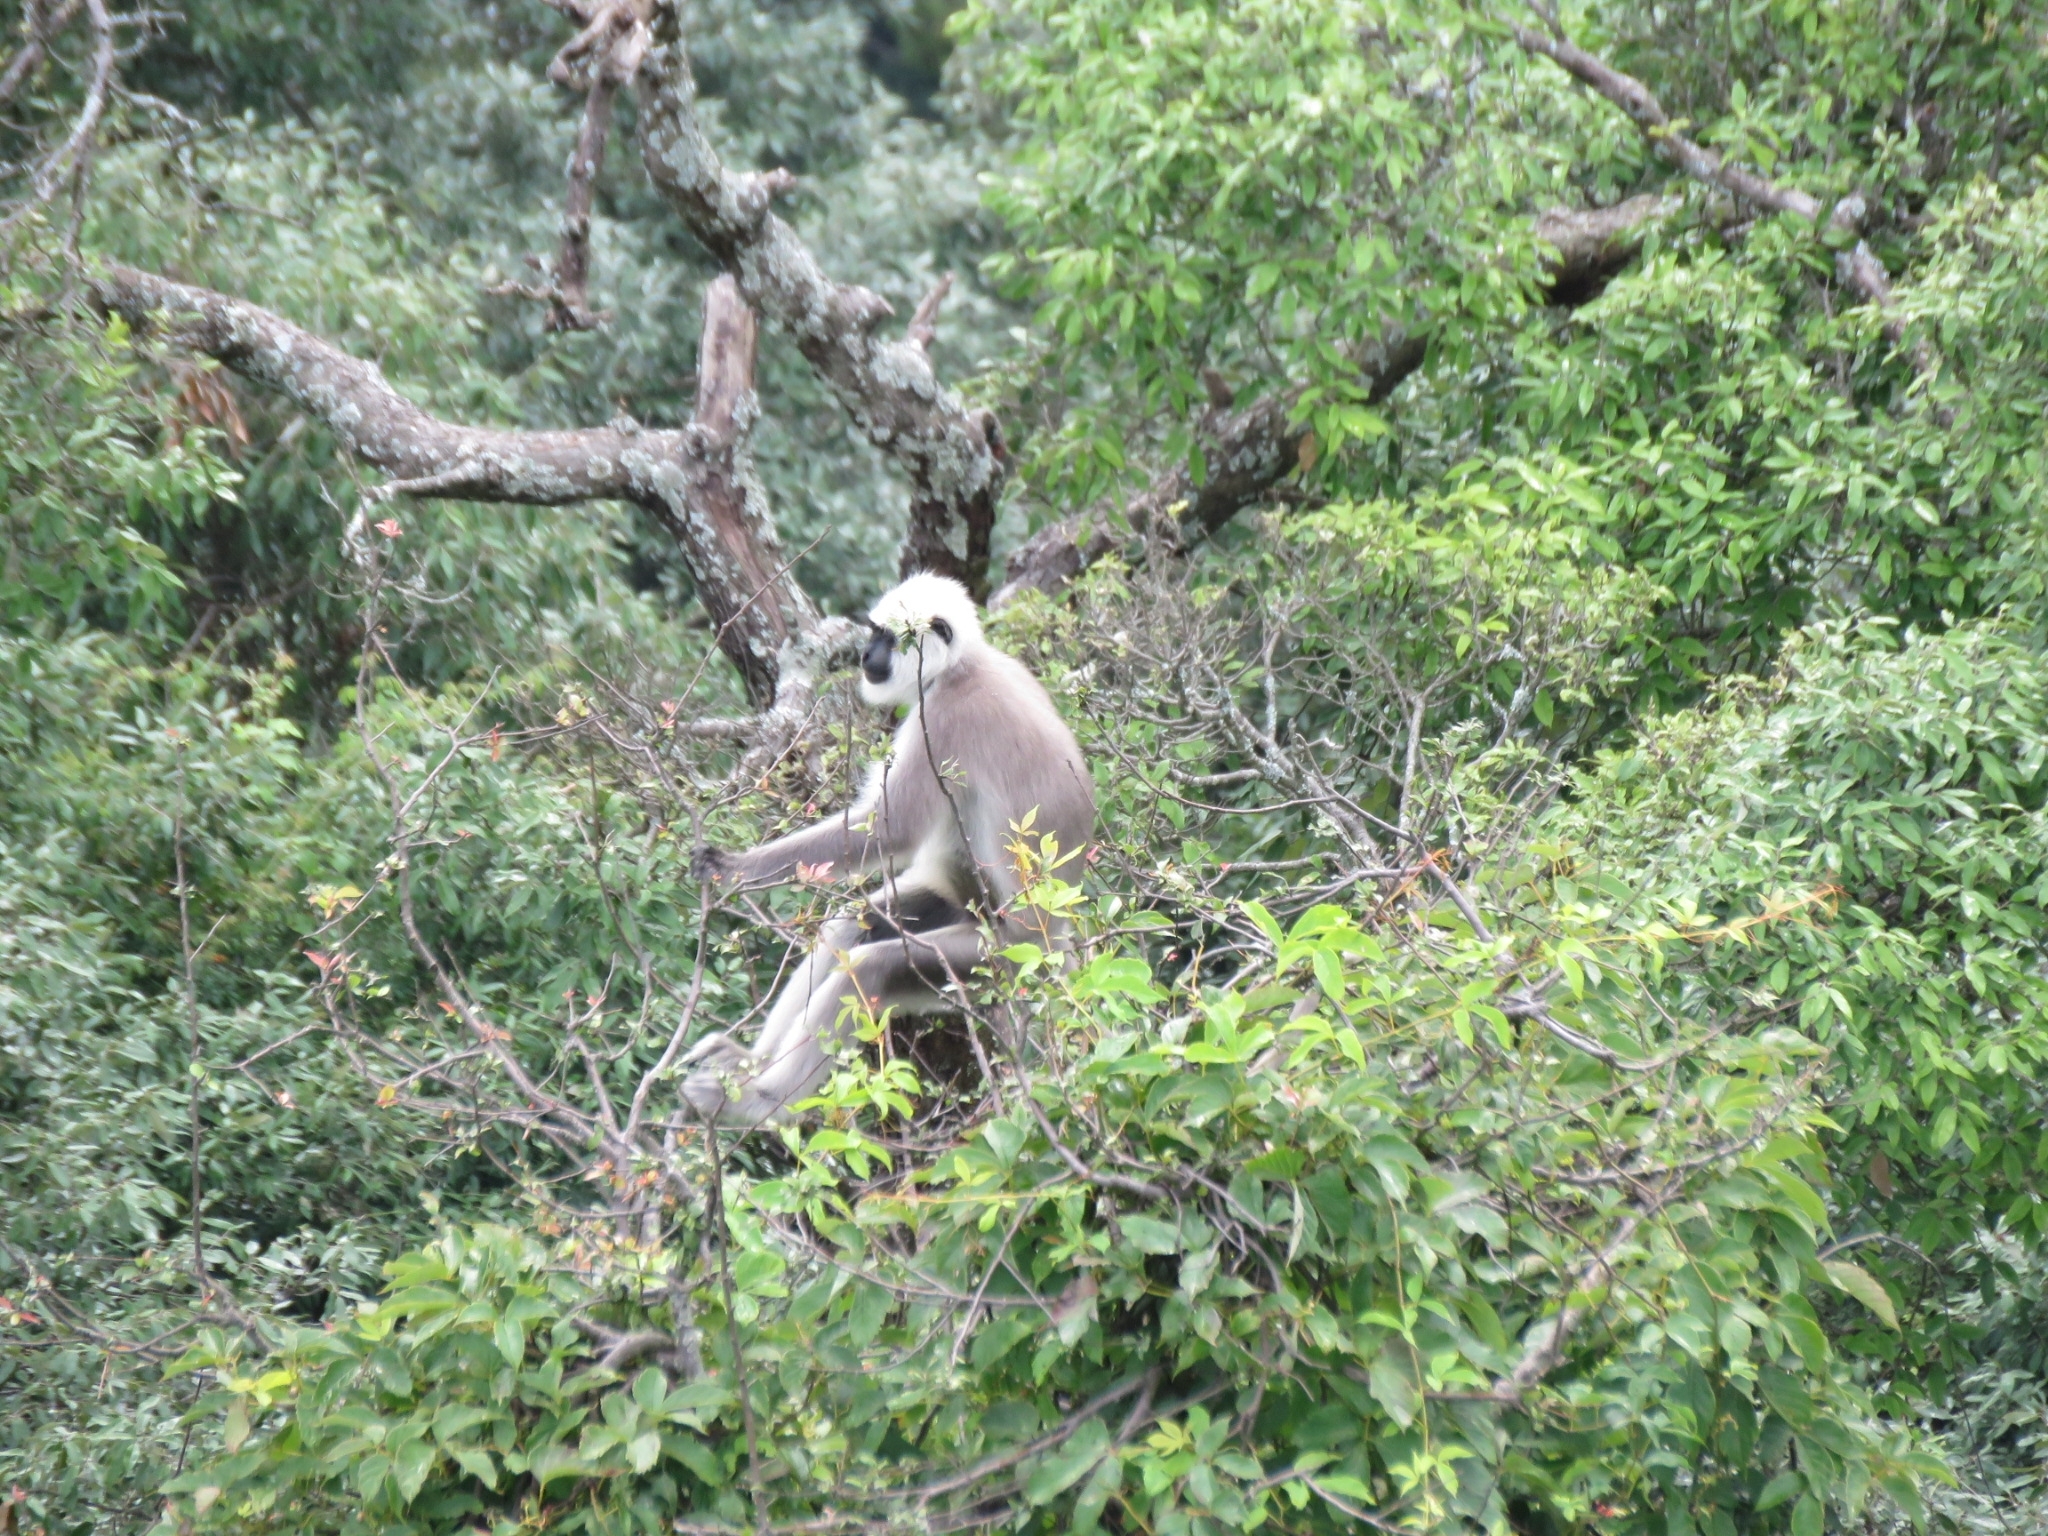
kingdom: Animalia
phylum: Chordata
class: Mammalia
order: Primates
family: Cercopithecidae
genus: Semnopithecus
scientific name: Semnopithecus schistaceus
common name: Nepal gray langur
